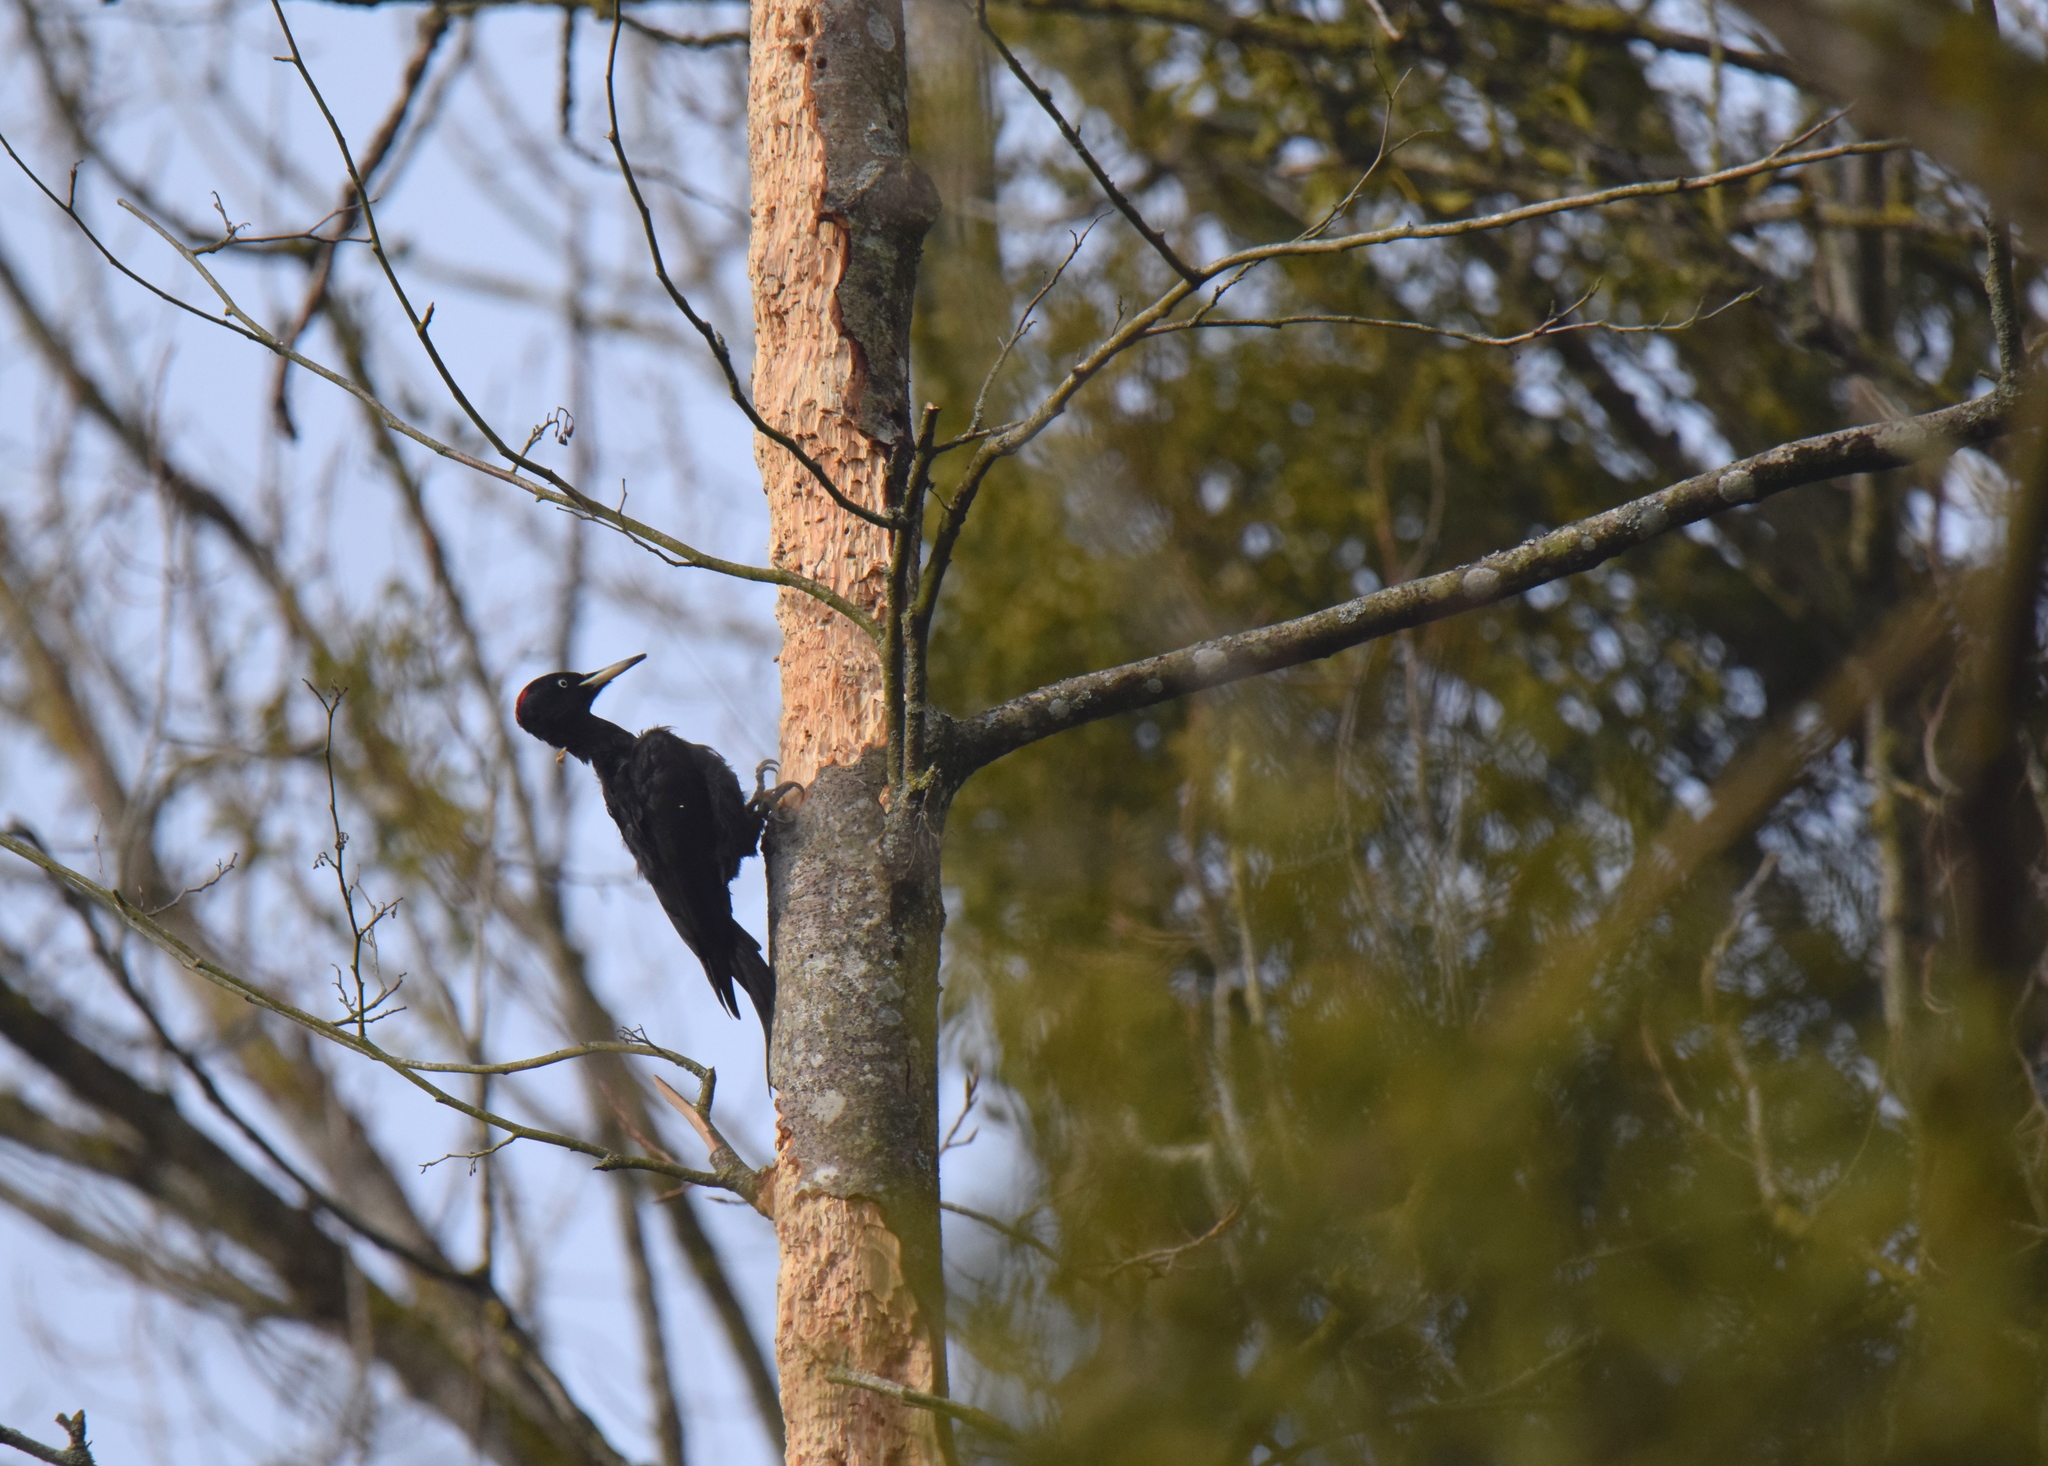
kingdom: Animalia
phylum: Chordata
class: Aves
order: Piciformes
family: Picidae
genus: Dryocopus
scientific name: Dryocopus martius
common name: Black woodpecker
